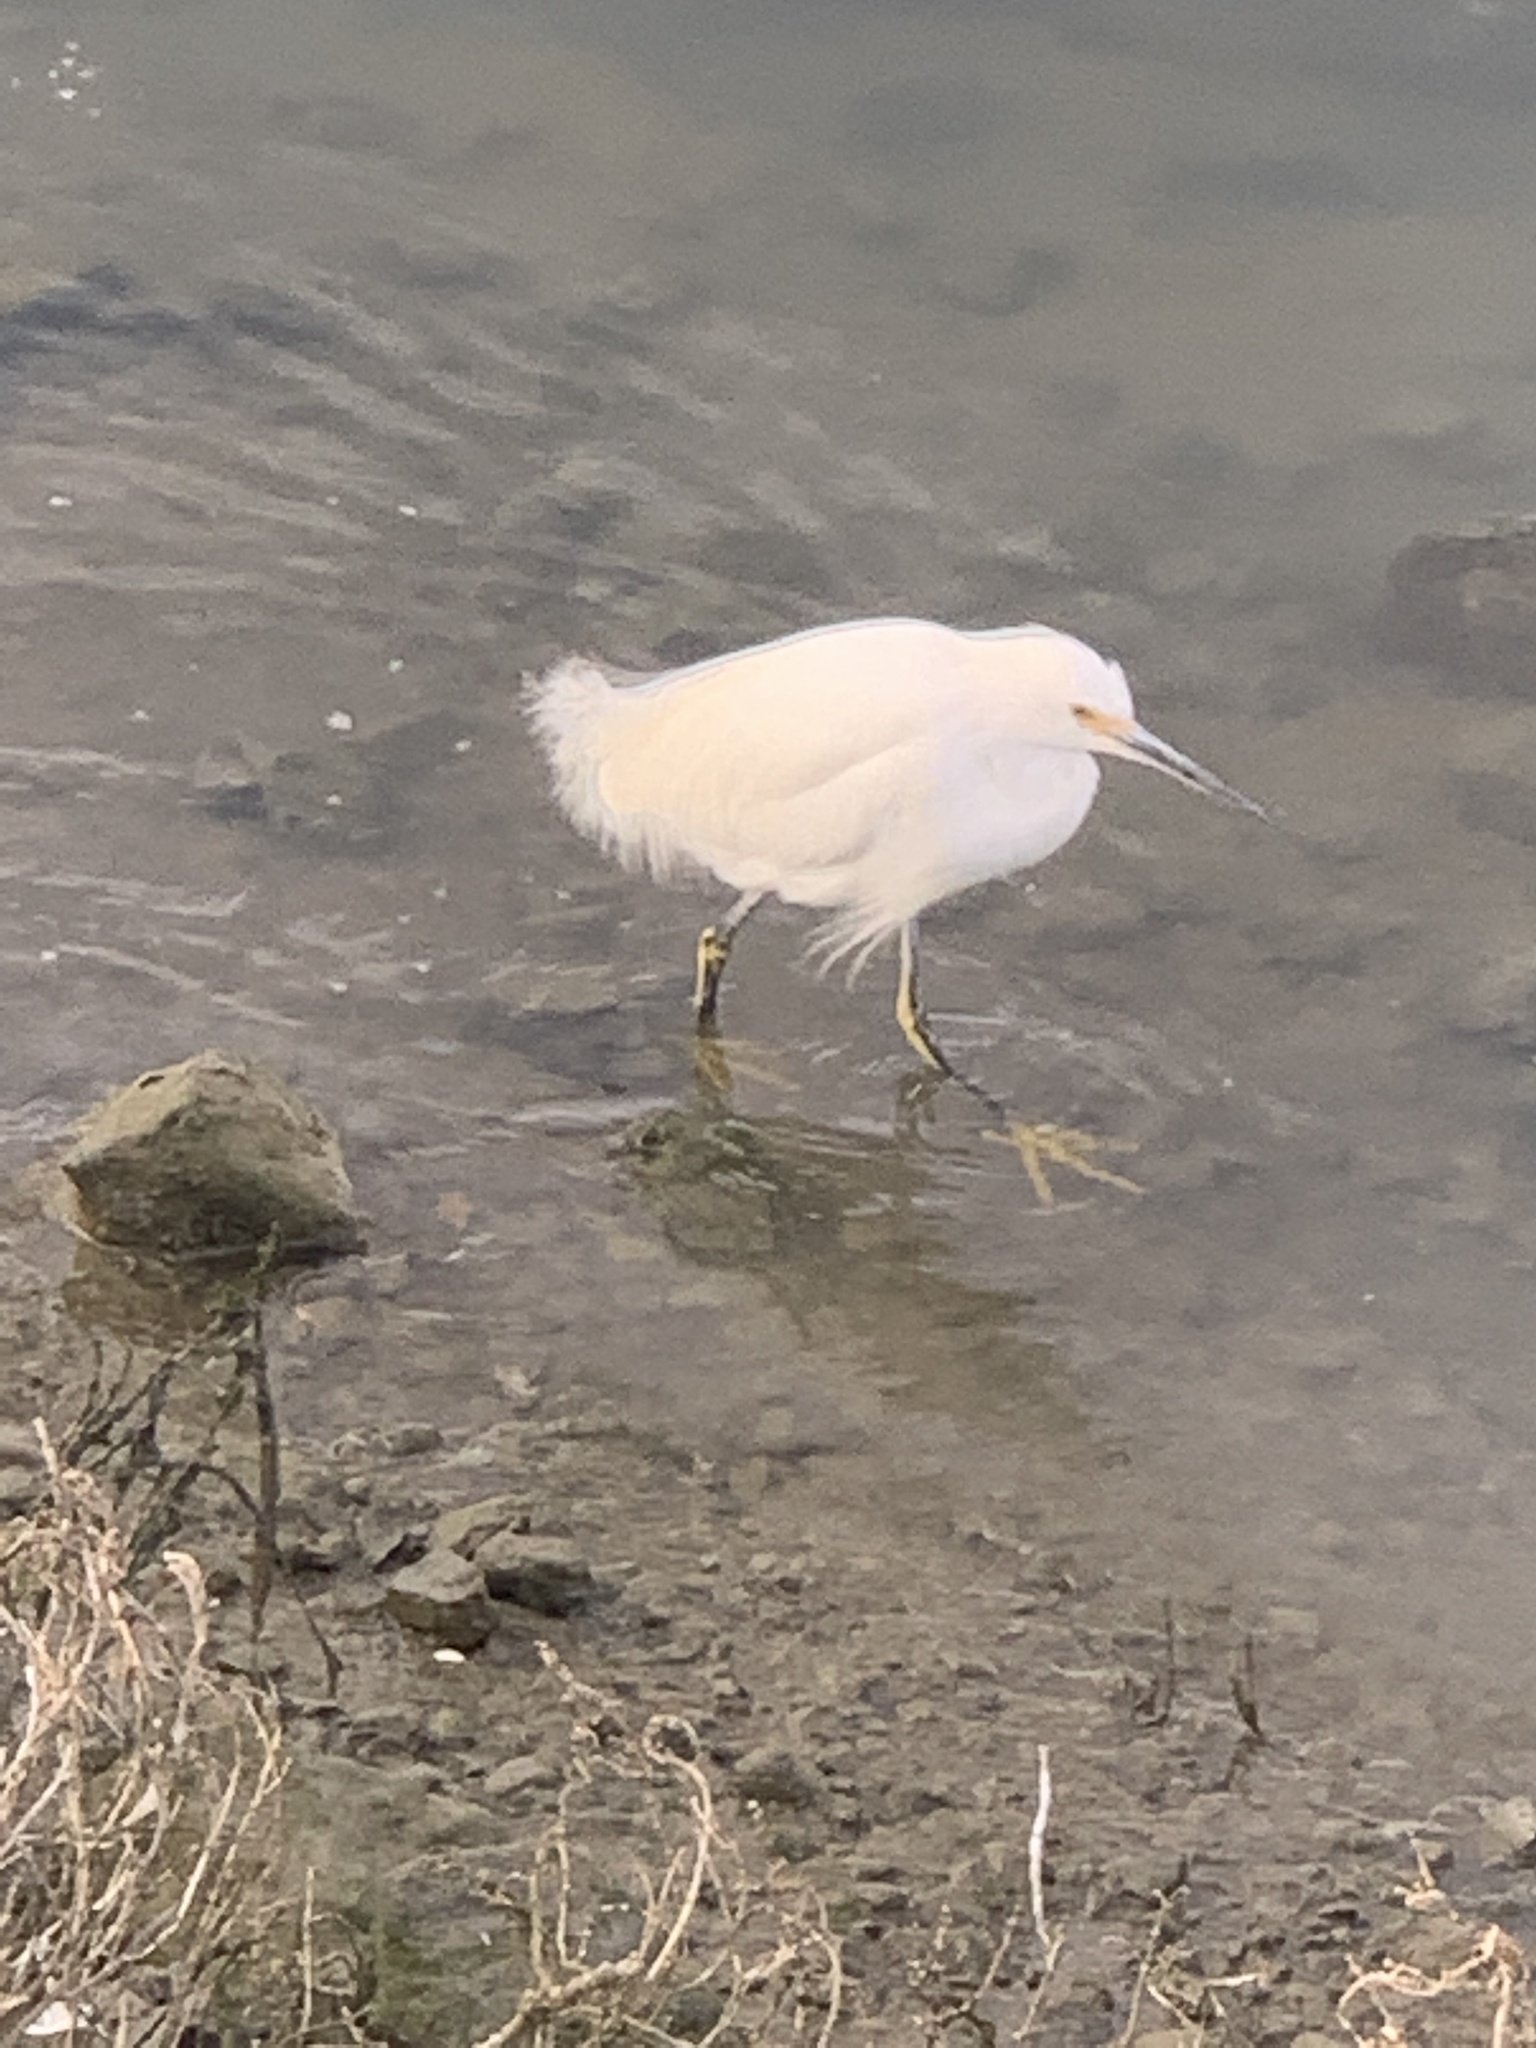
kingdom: Animalia
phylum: Chordata
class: Aves
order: Pelecaniformes
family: Ardeidae
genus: Egretta
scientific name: Egretta thula
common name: Snowy egret
